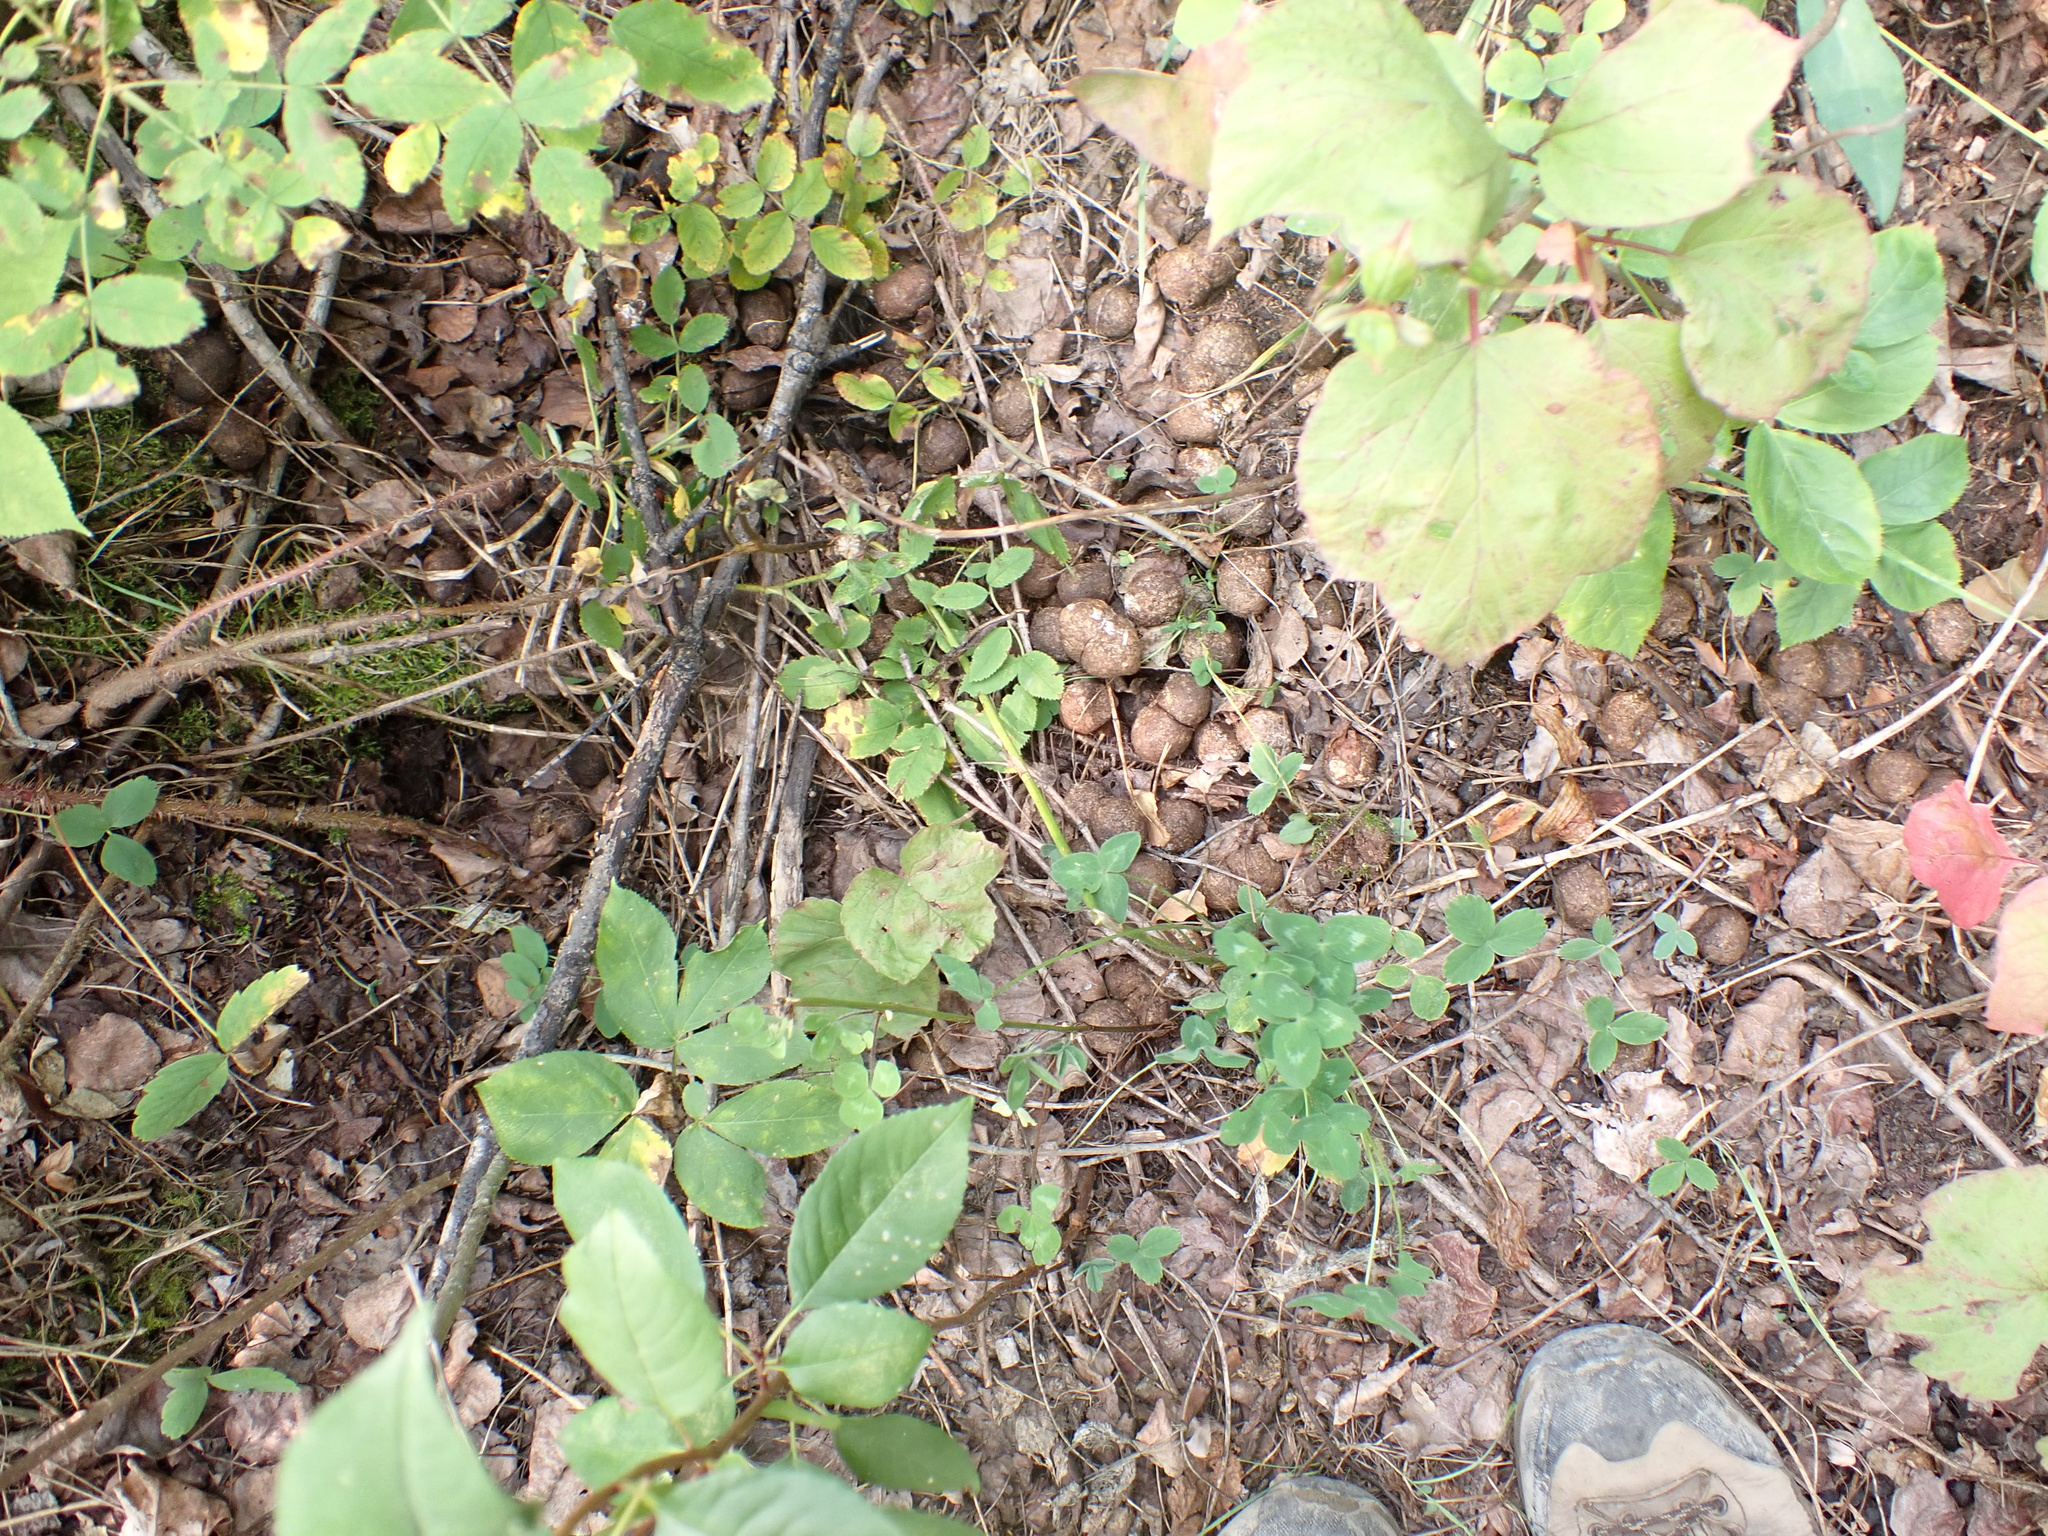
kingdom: Animalia
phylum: Chordata
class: Mammalia
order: Artiodactyla
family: Cervidae
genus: Alces
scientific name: Alces alces
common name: Moose
